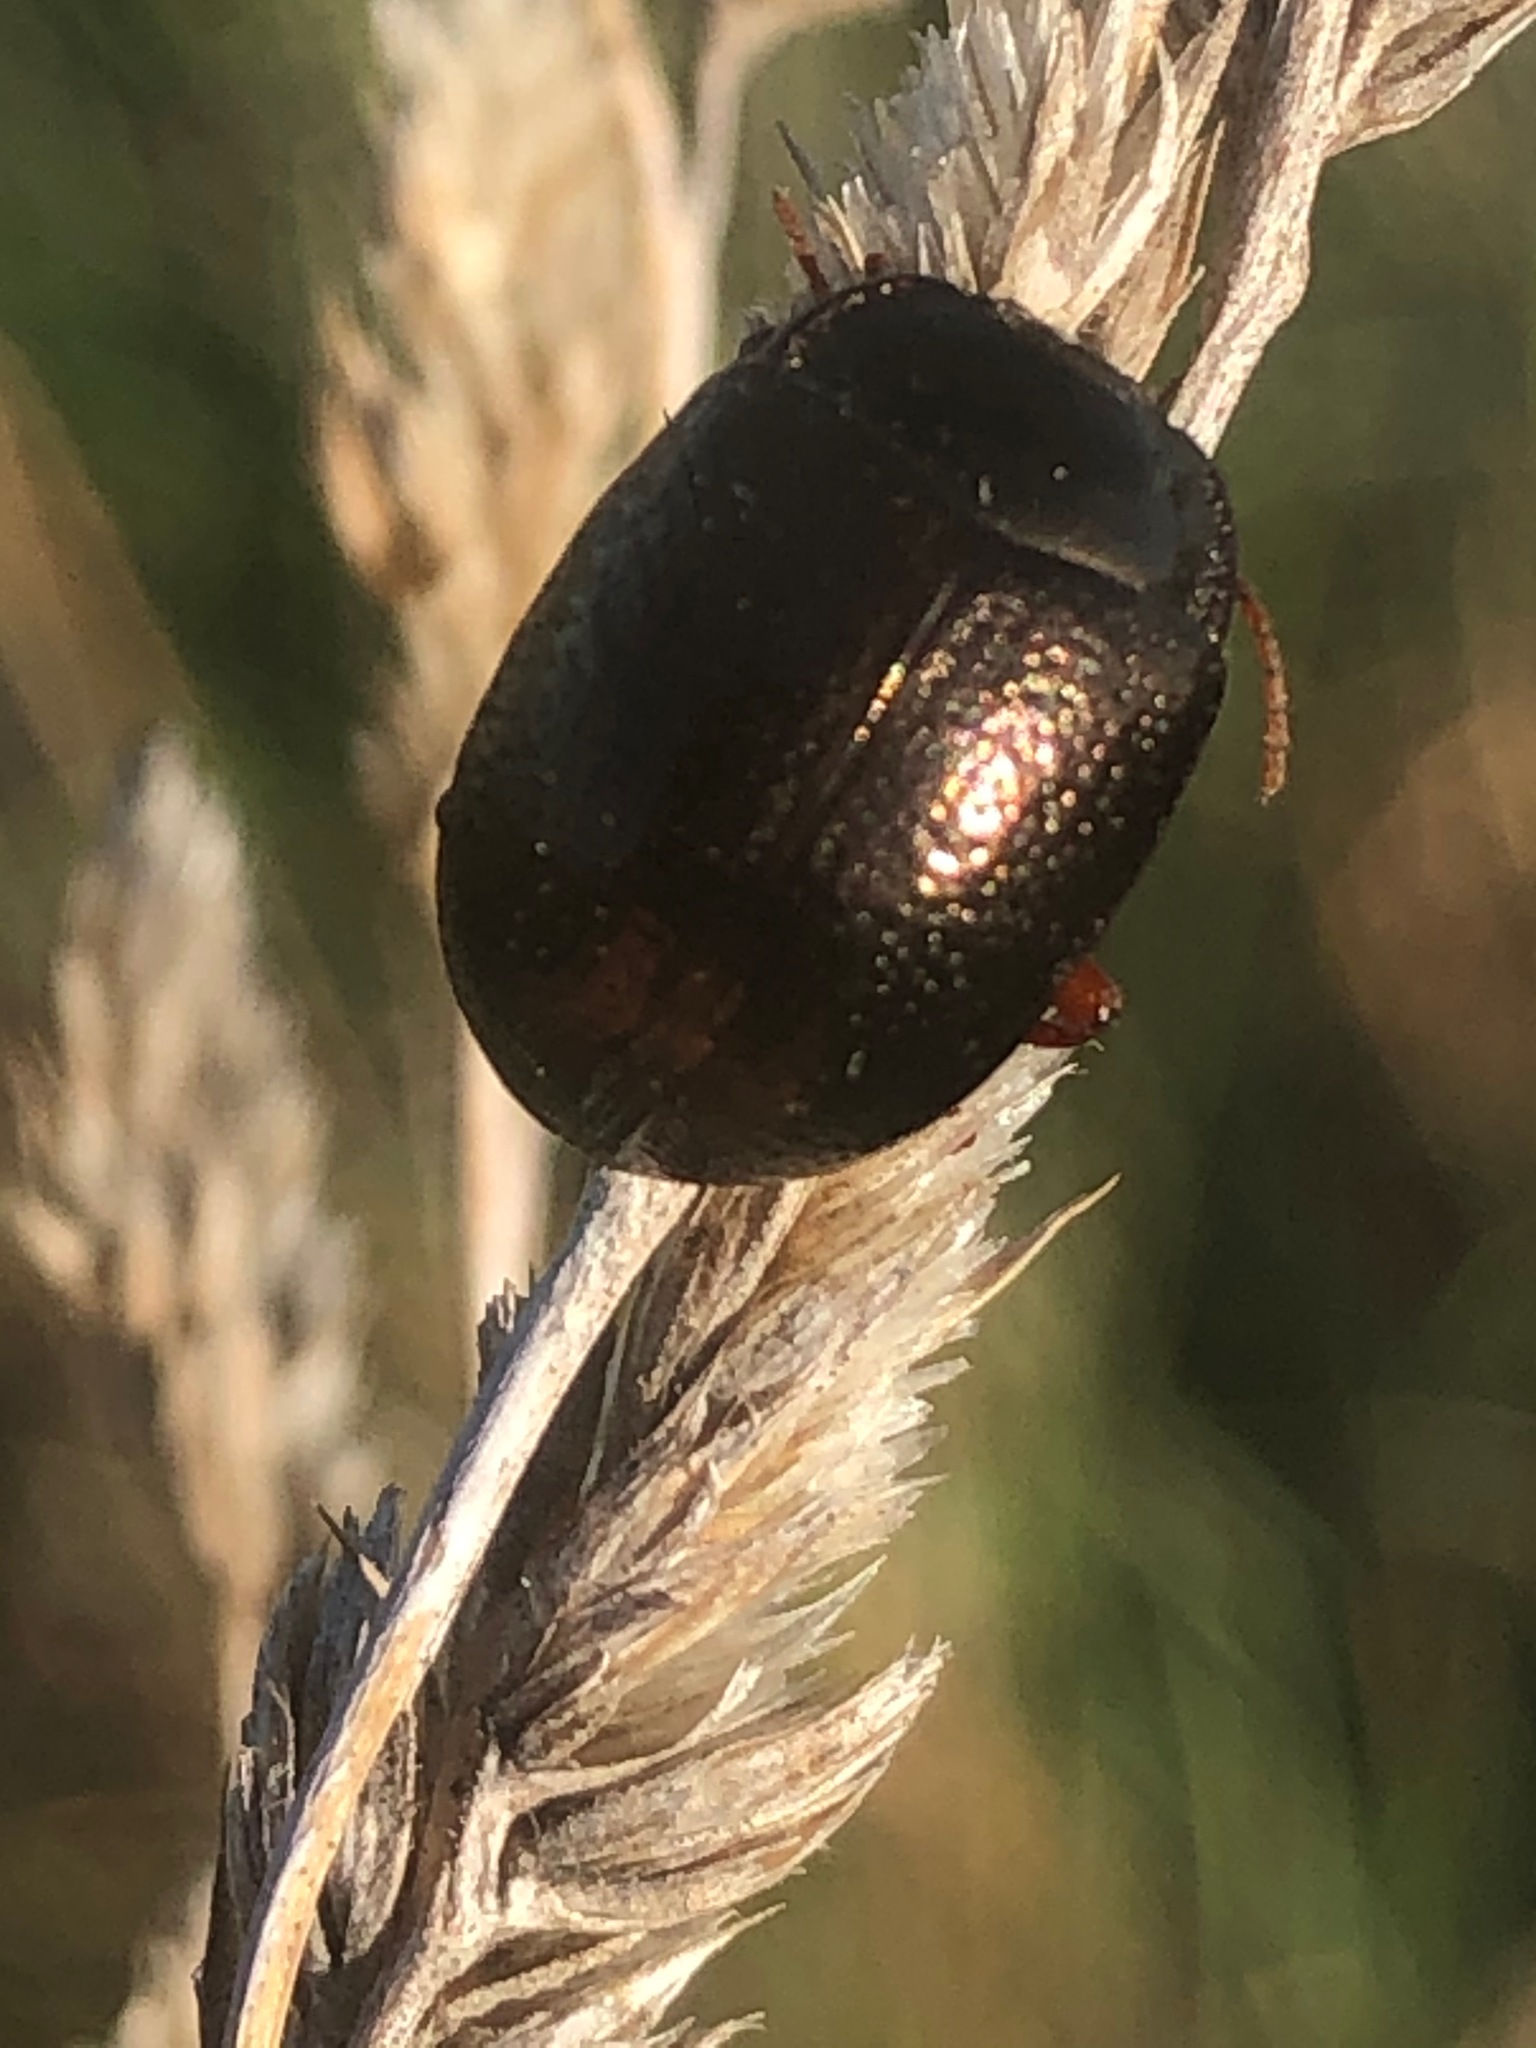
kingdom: Animalia
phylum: Arthropoda
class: Insecta
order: Coleoptera
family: Chrysomelidae
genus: Chrysolina
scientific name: Chrysolina bankii
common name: Leaf beetle
